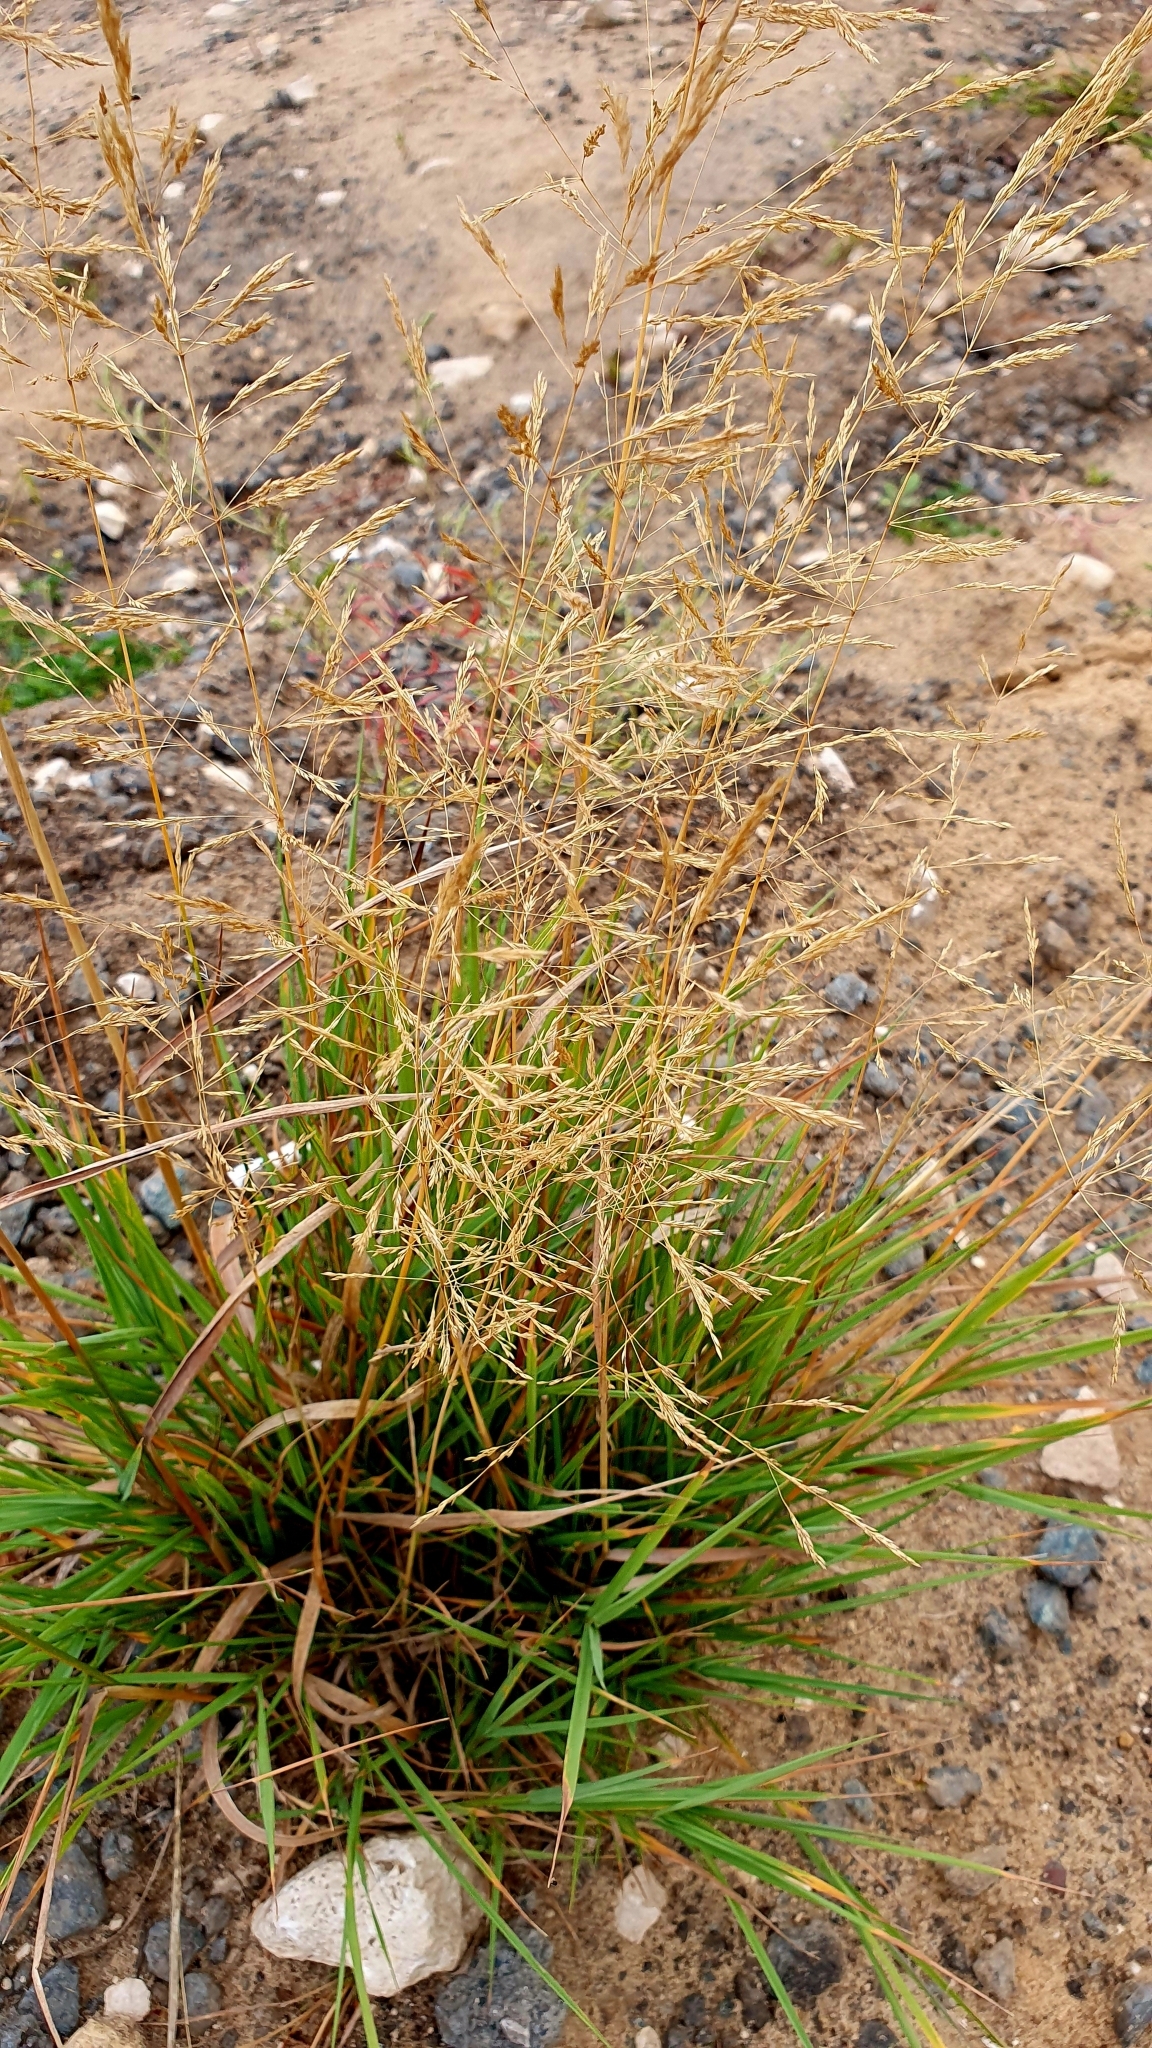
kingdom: Plantae
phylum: Tracheophyta
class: Liliopsida
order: Poales
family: Poaceae
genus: Puccinellia
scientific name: Puccinellia hauptiana
